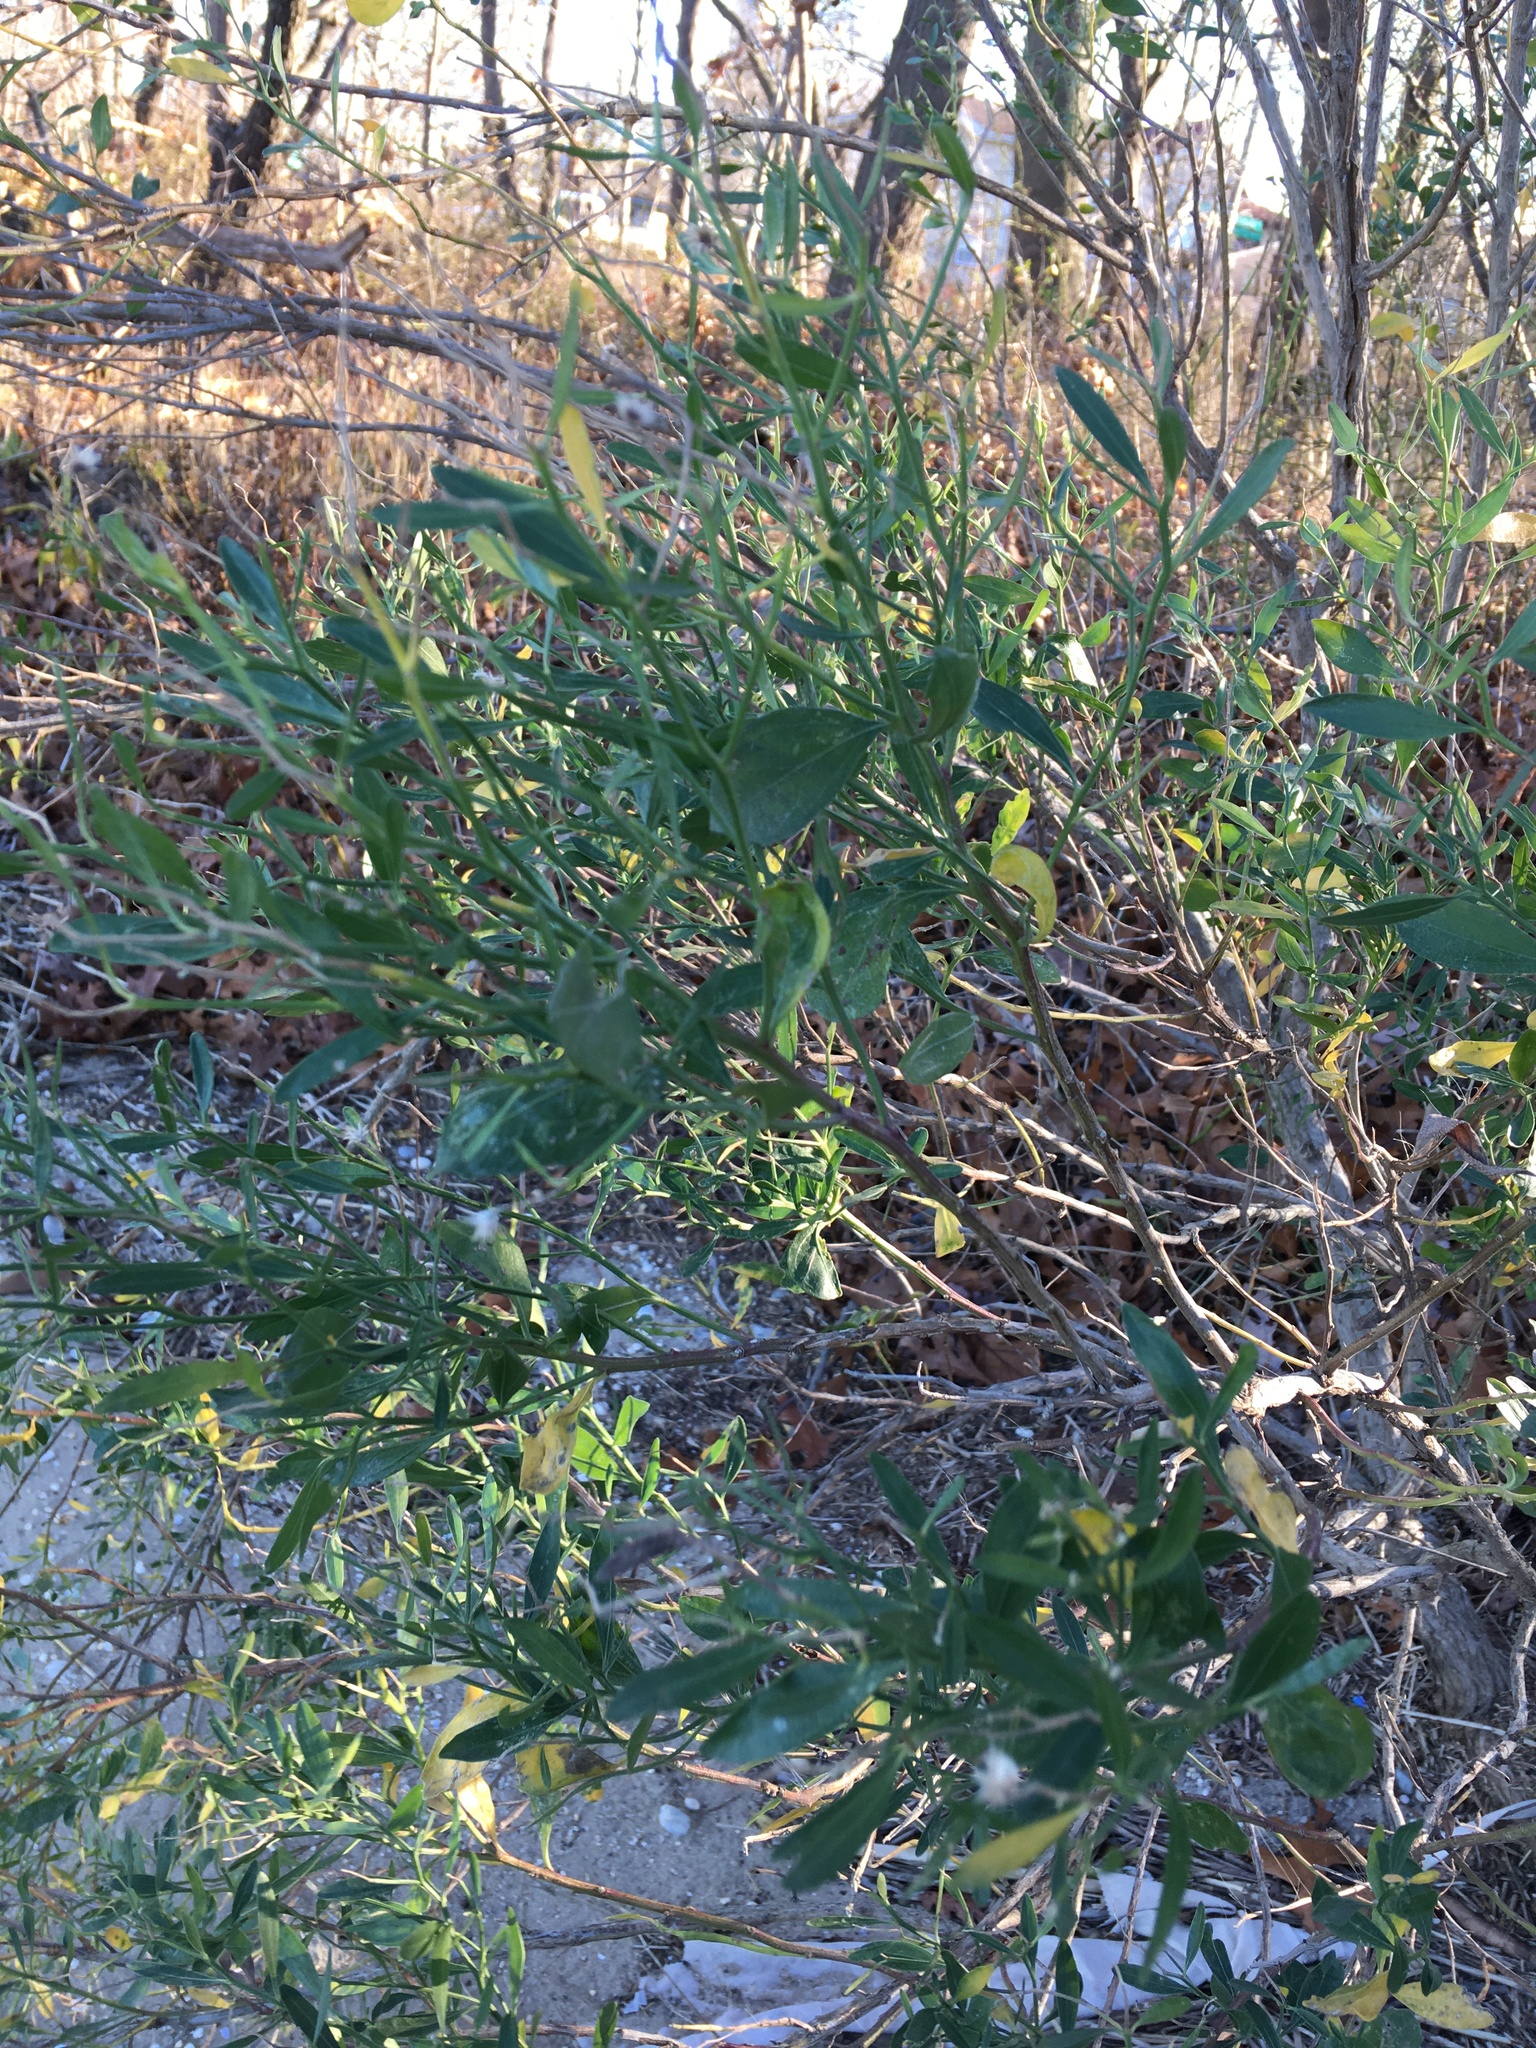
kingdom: Plantae
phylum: Tracheophyta
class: Magnoliopsida
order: Asterales
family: Asteraceae
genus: Baccharis
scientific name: Baccharis halimifolia
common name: Eastern baccharis
